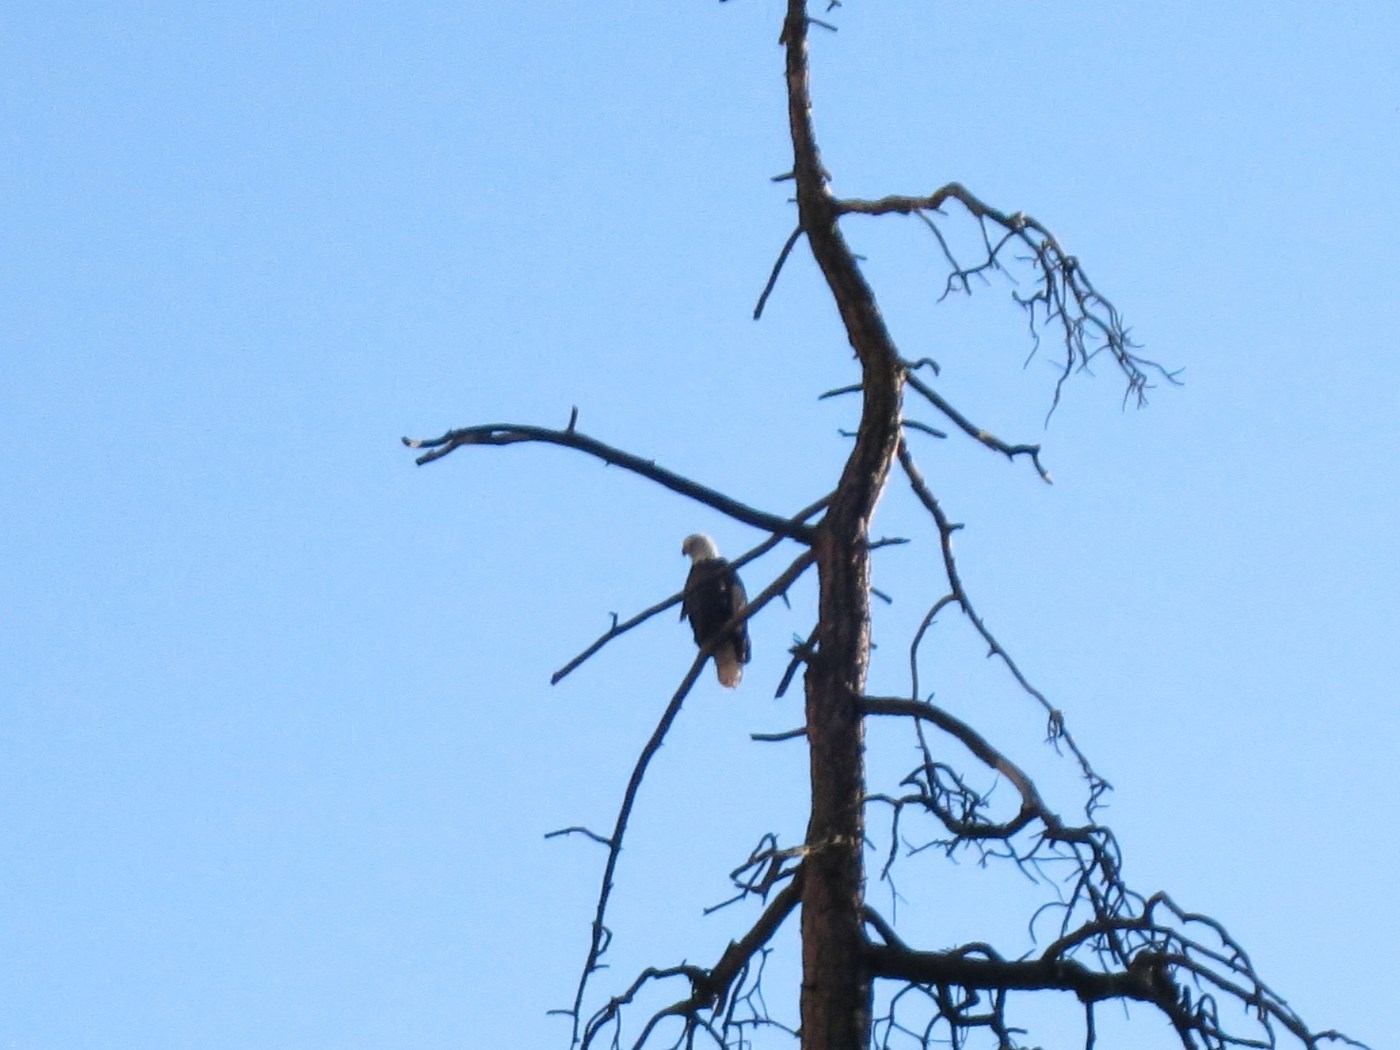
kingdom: Animalia
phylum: Chordata
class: Aves
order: Accipitriformes
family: Accipitridae
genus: Haliaeetus
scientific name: Haliaeetus leucocephalus
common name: Bald eagle
